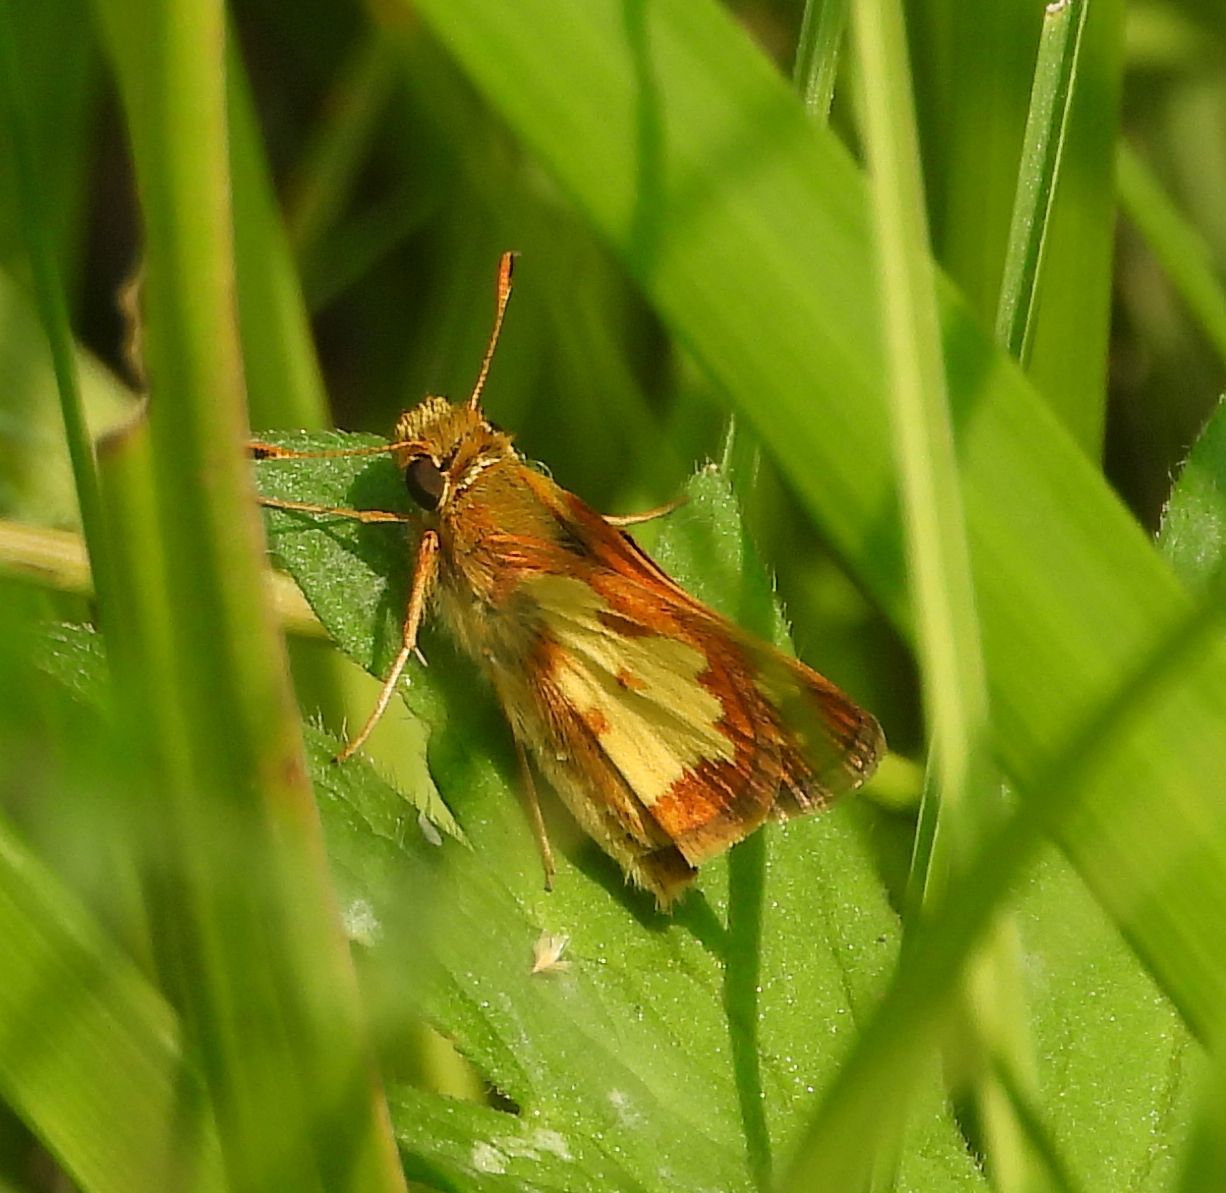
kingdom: Animalia
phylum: Arthropoda
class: Insecta
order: Lepidoptera
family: Hesperiidae
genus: Polites
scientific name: Polites coras
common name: Peck's skipper
